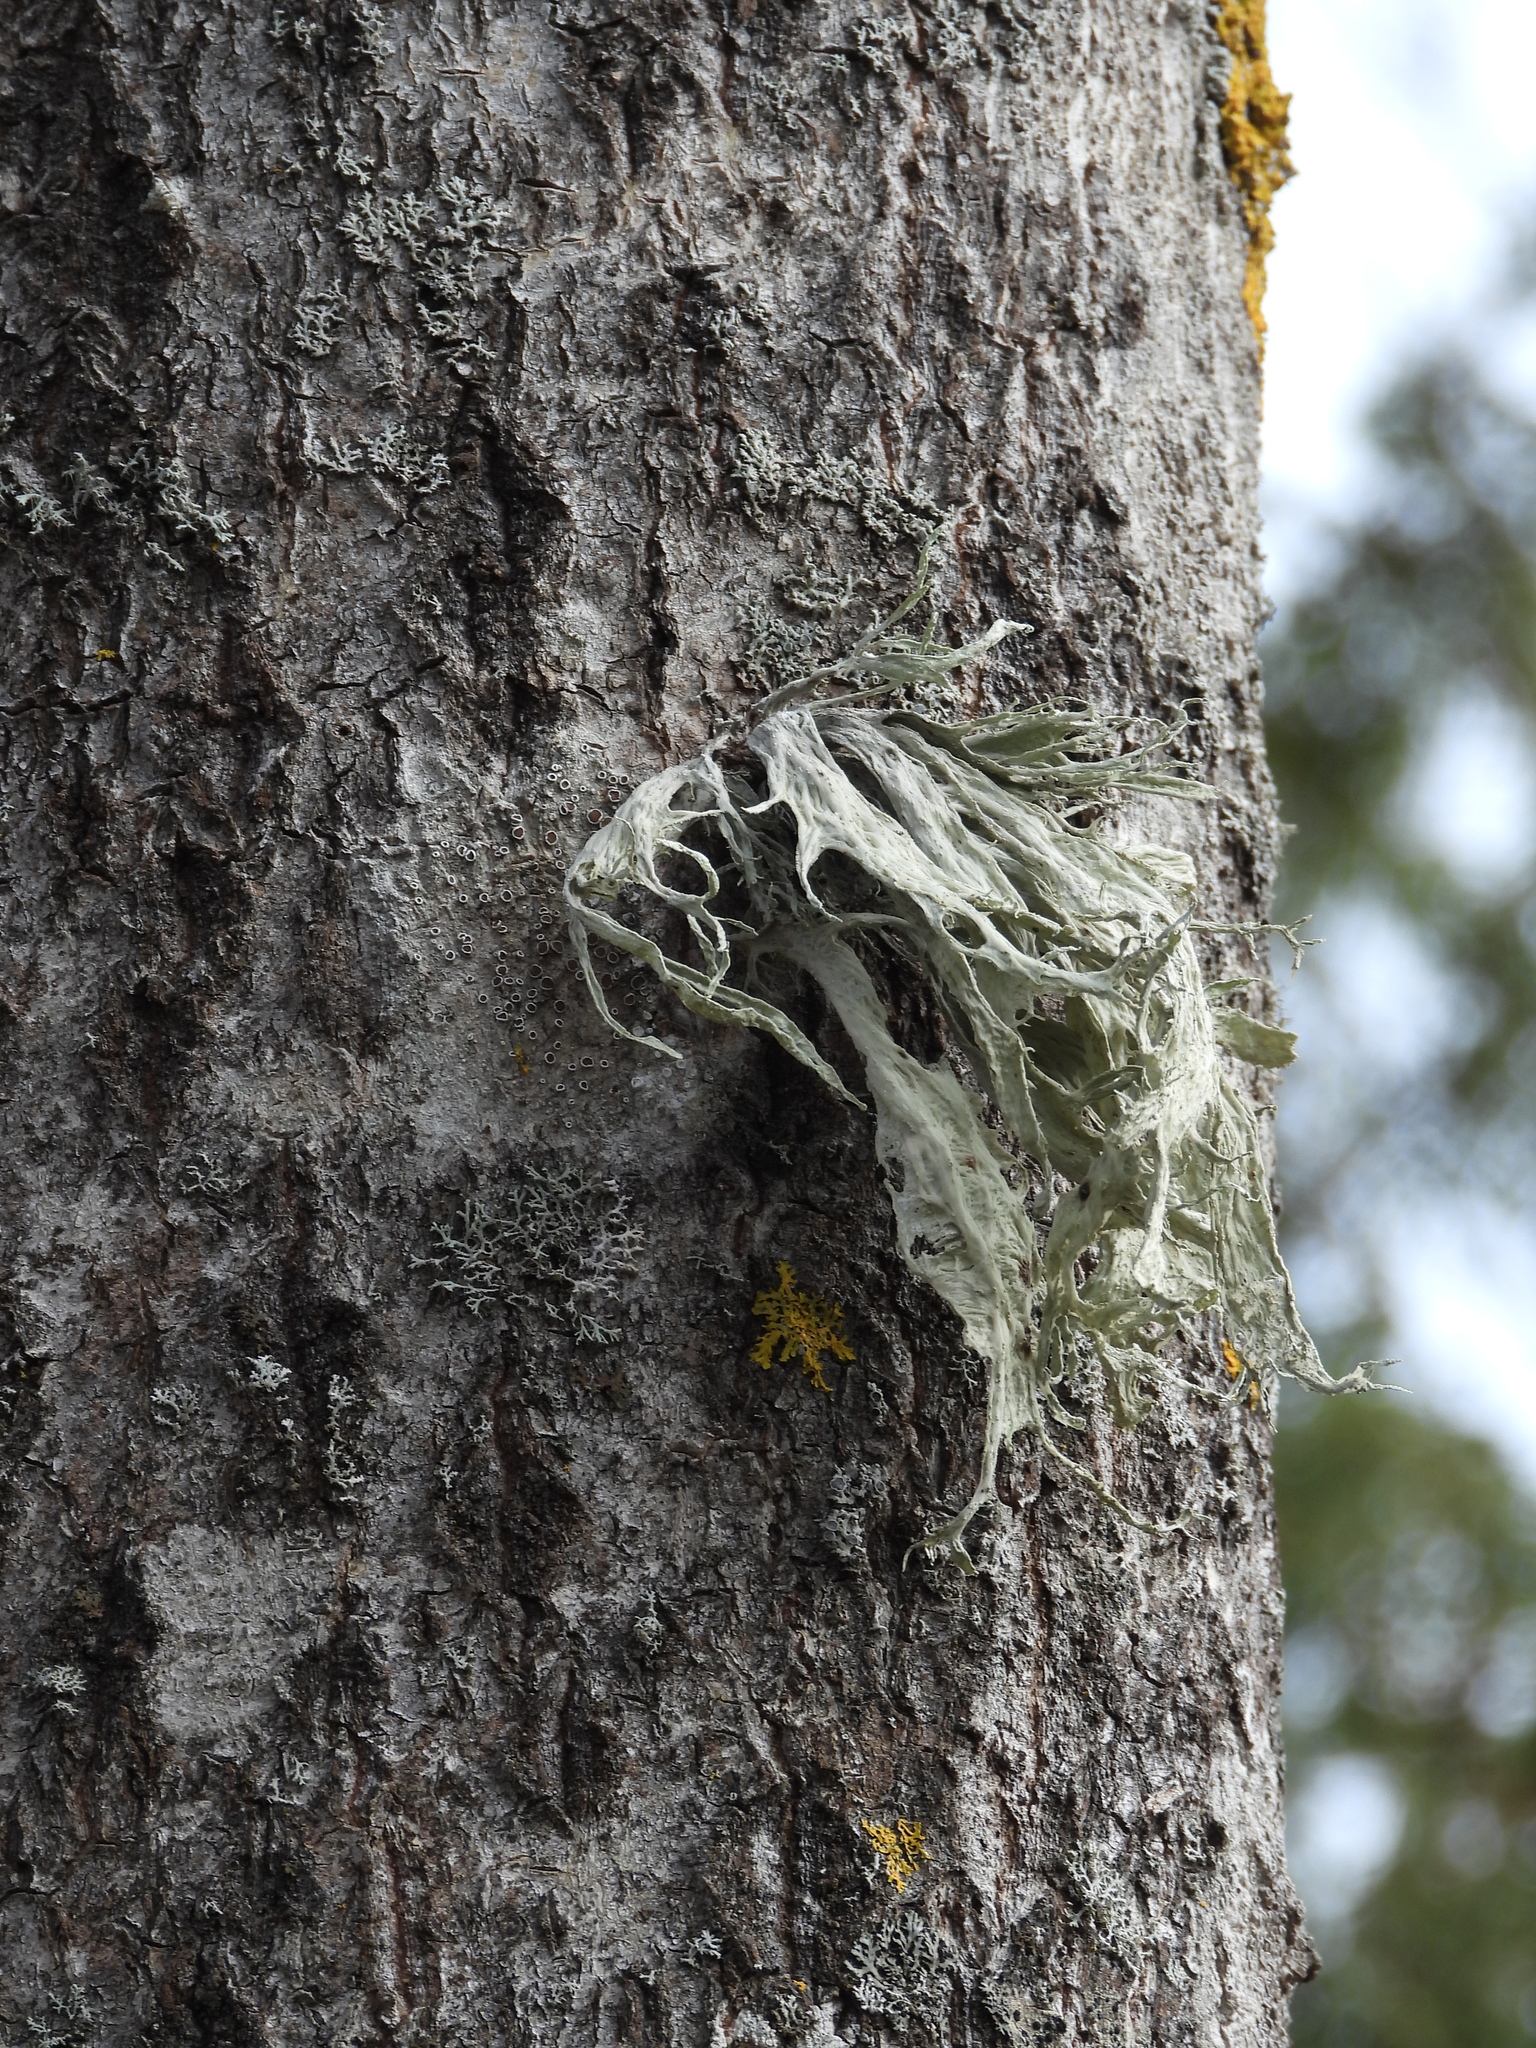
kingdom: Fungi
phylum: Ascomycota
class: Lecanoromycetes
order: Lecanorales
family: Ramalinaceae
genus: Ramalina
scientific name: Ramalina fraxinea
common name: Cartilage lichen
